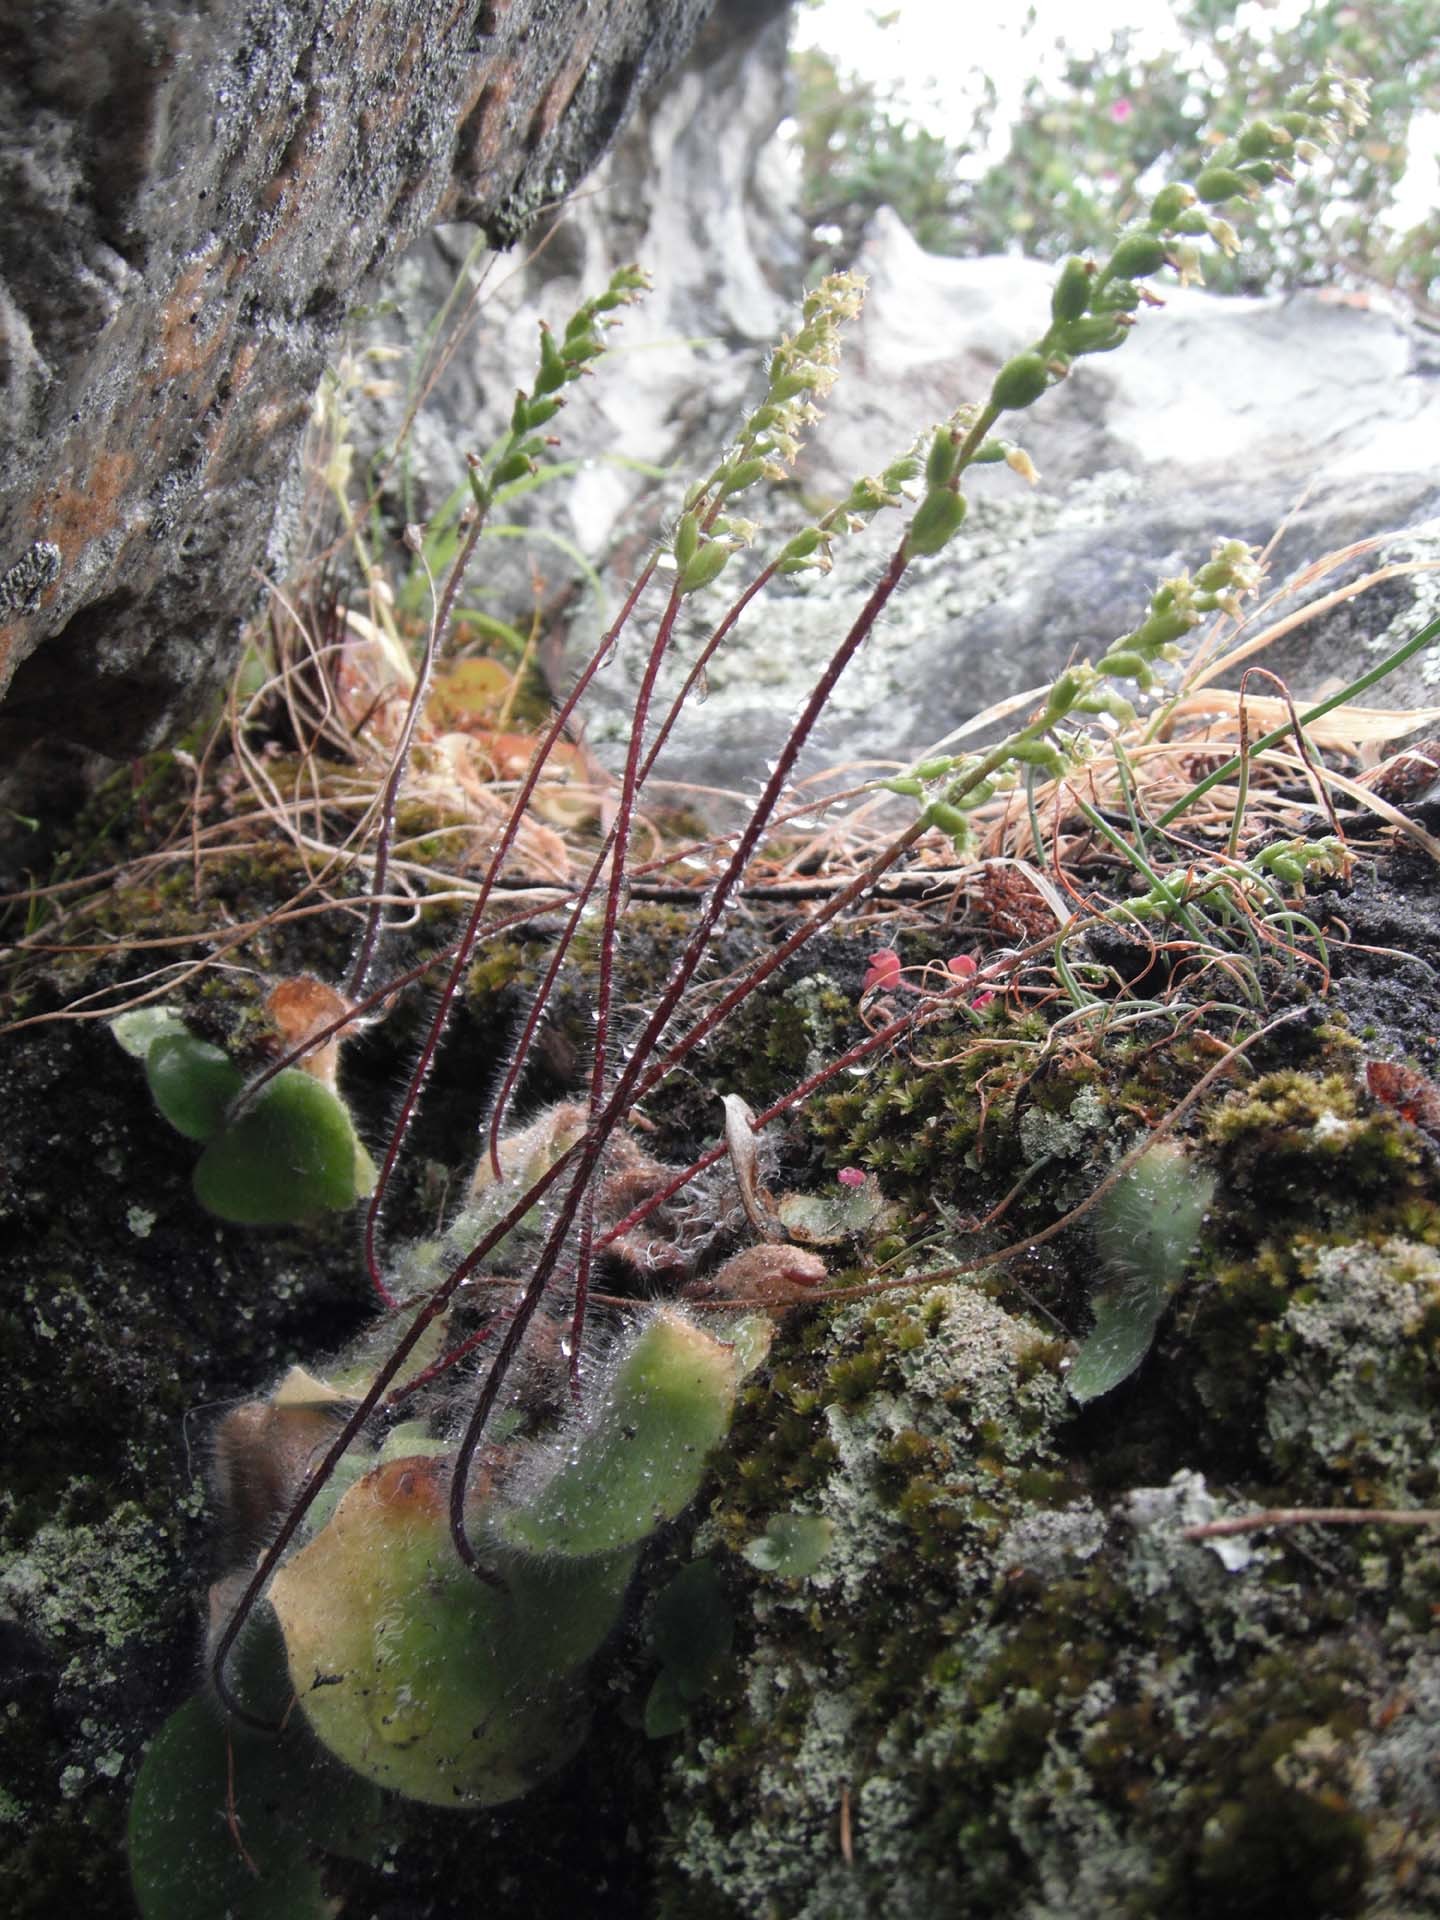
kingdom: Plantae
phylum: Tracheophyta
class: Liliopsida
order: Asparagales
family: Orchidaceae
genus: Holothrix
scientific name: Holothrix villosa
